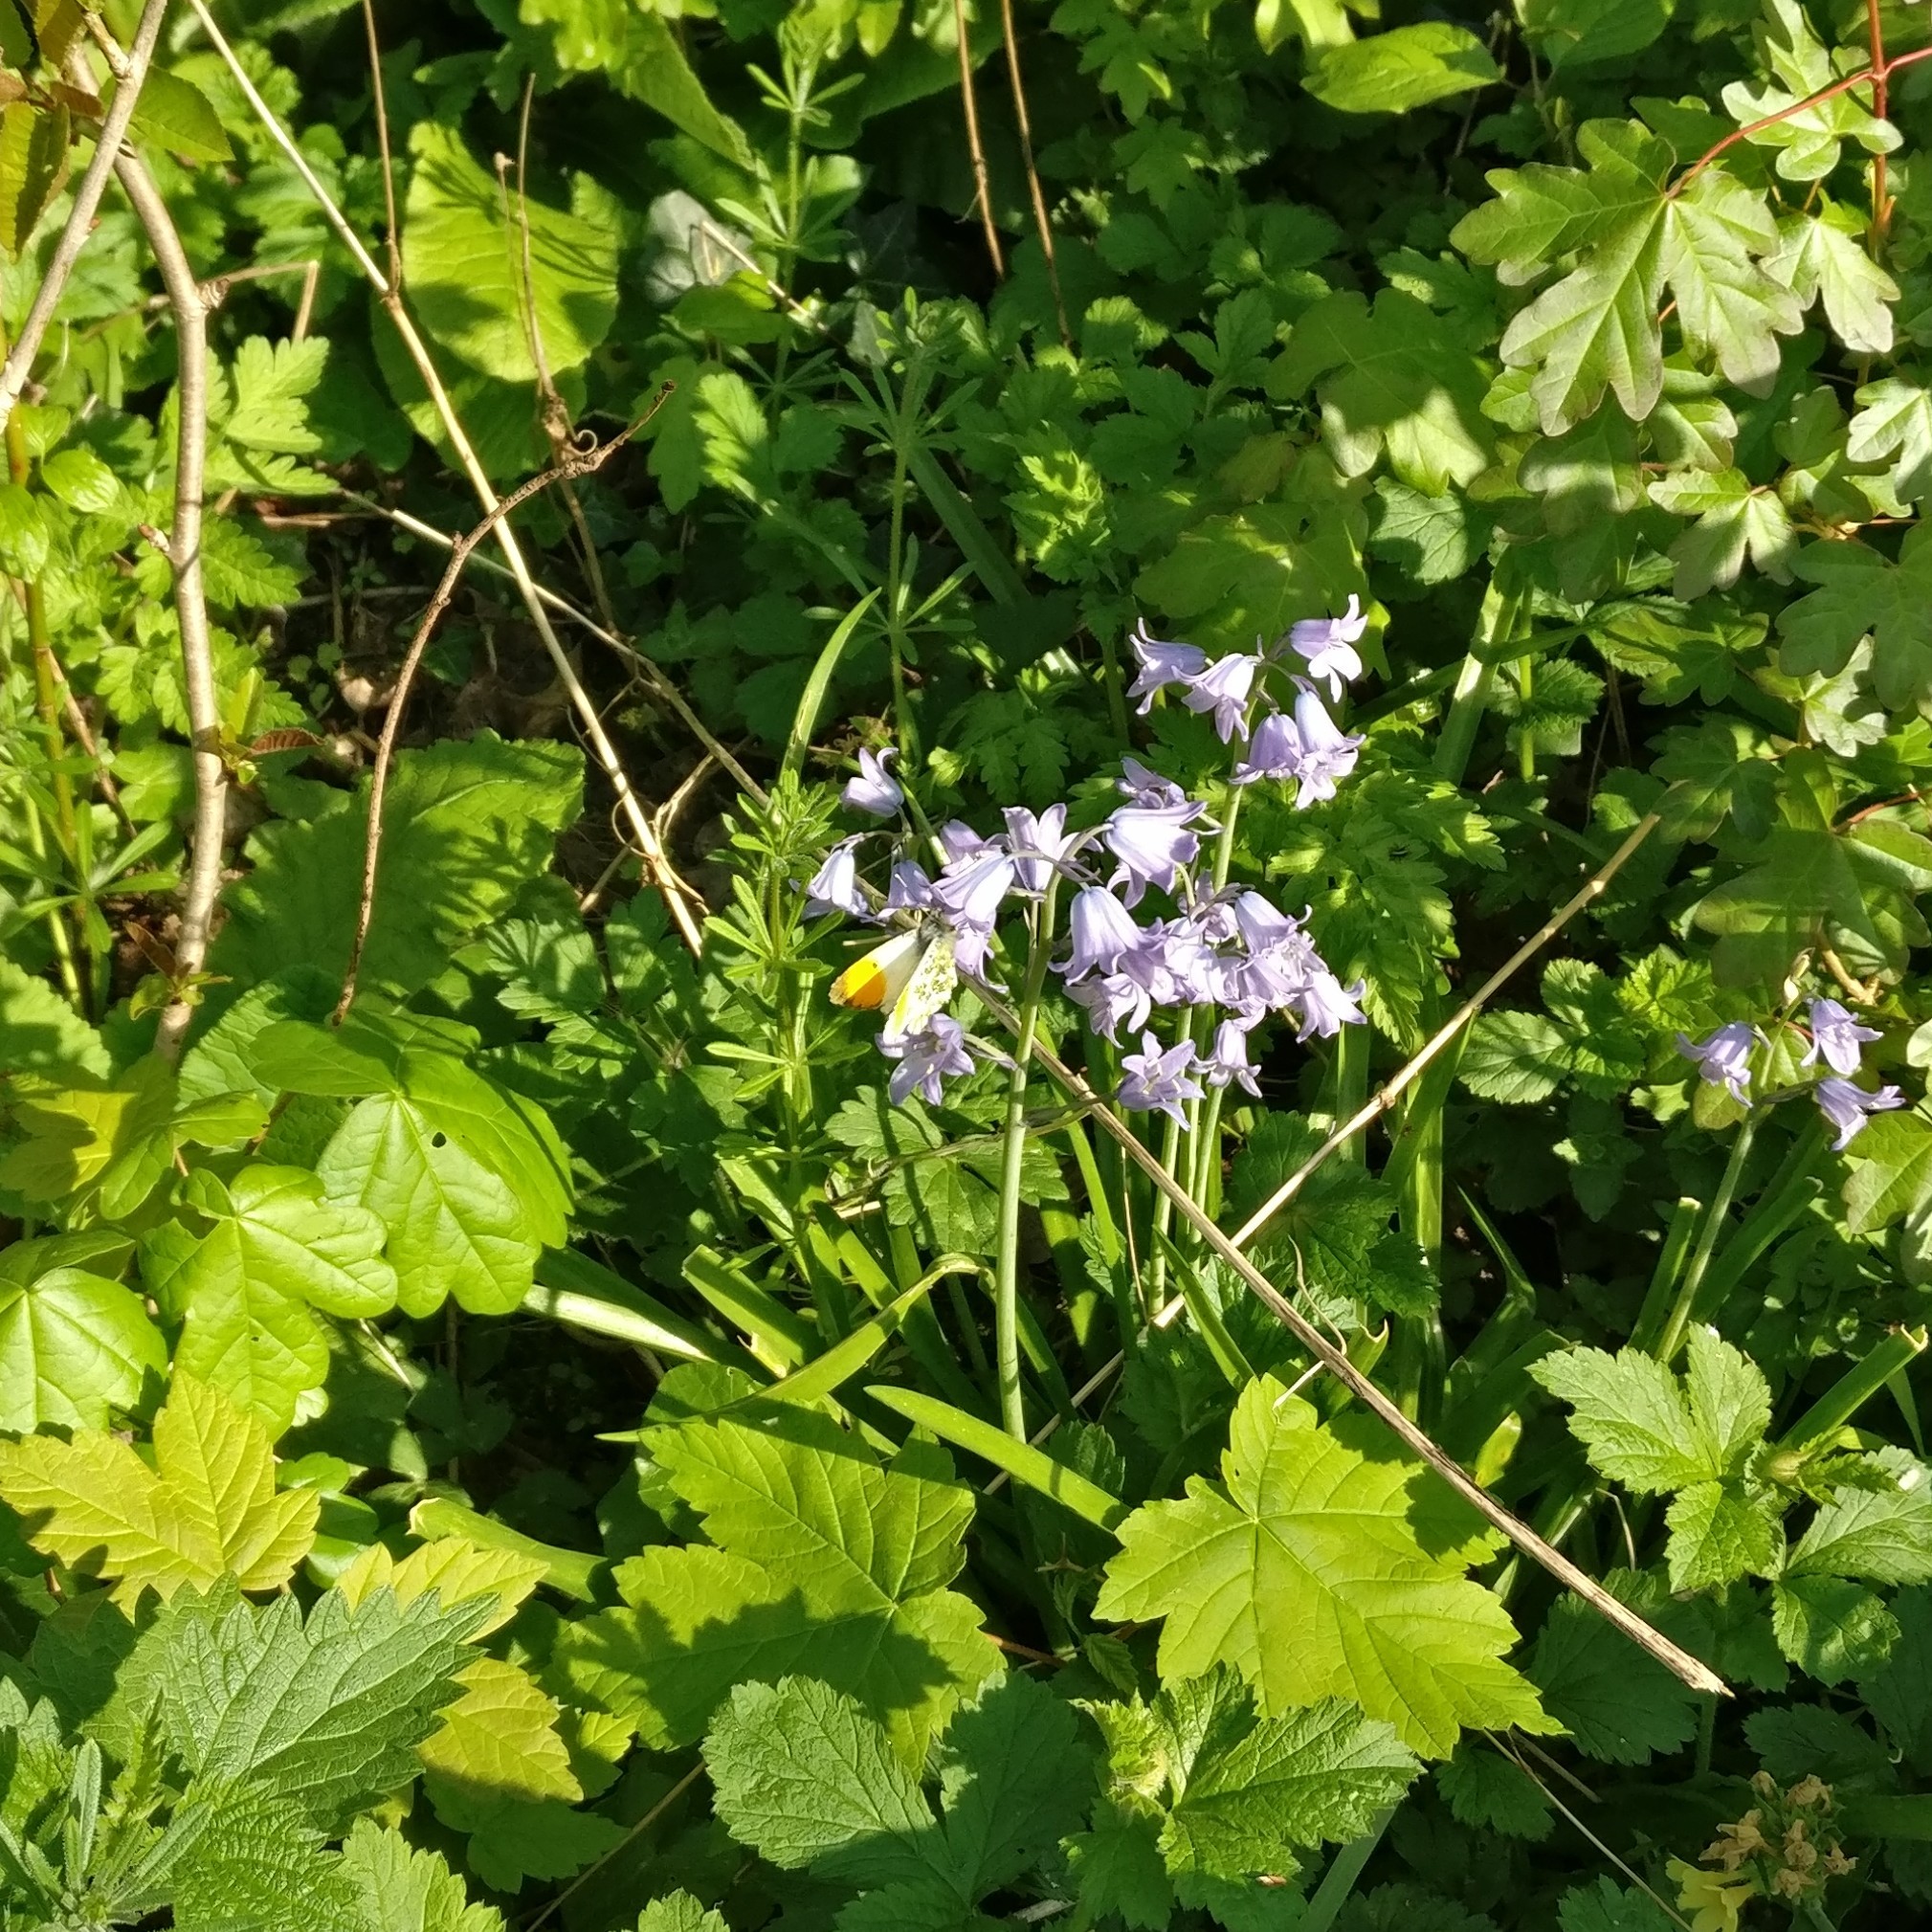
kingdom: Animalia
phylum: Arthropoda
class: Insecta
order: Lepidoptera
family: Pieridae
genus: Anthocharis
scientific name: Anthocharis cardamines
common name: Orange-tip
